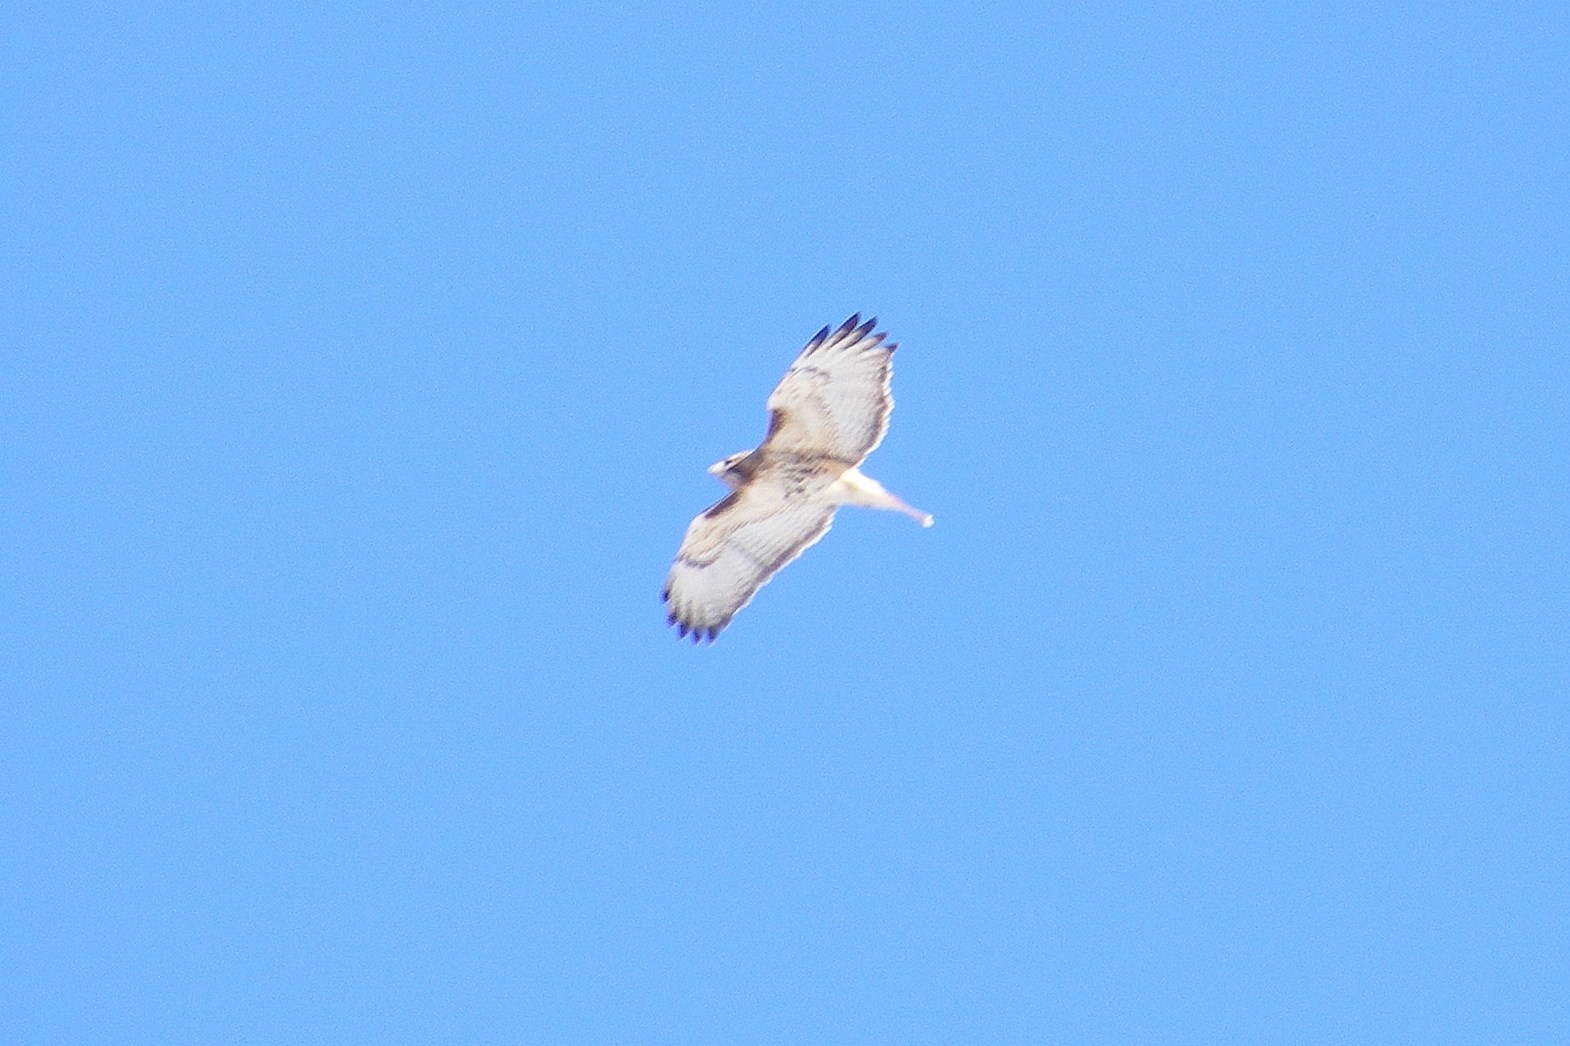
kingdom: Animalia
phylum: Chordata
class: Aves
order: Accipitriformes
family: Accipitridae
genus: Buteo
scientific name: Buteo jamaicensis
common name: Red-tailed hawk
